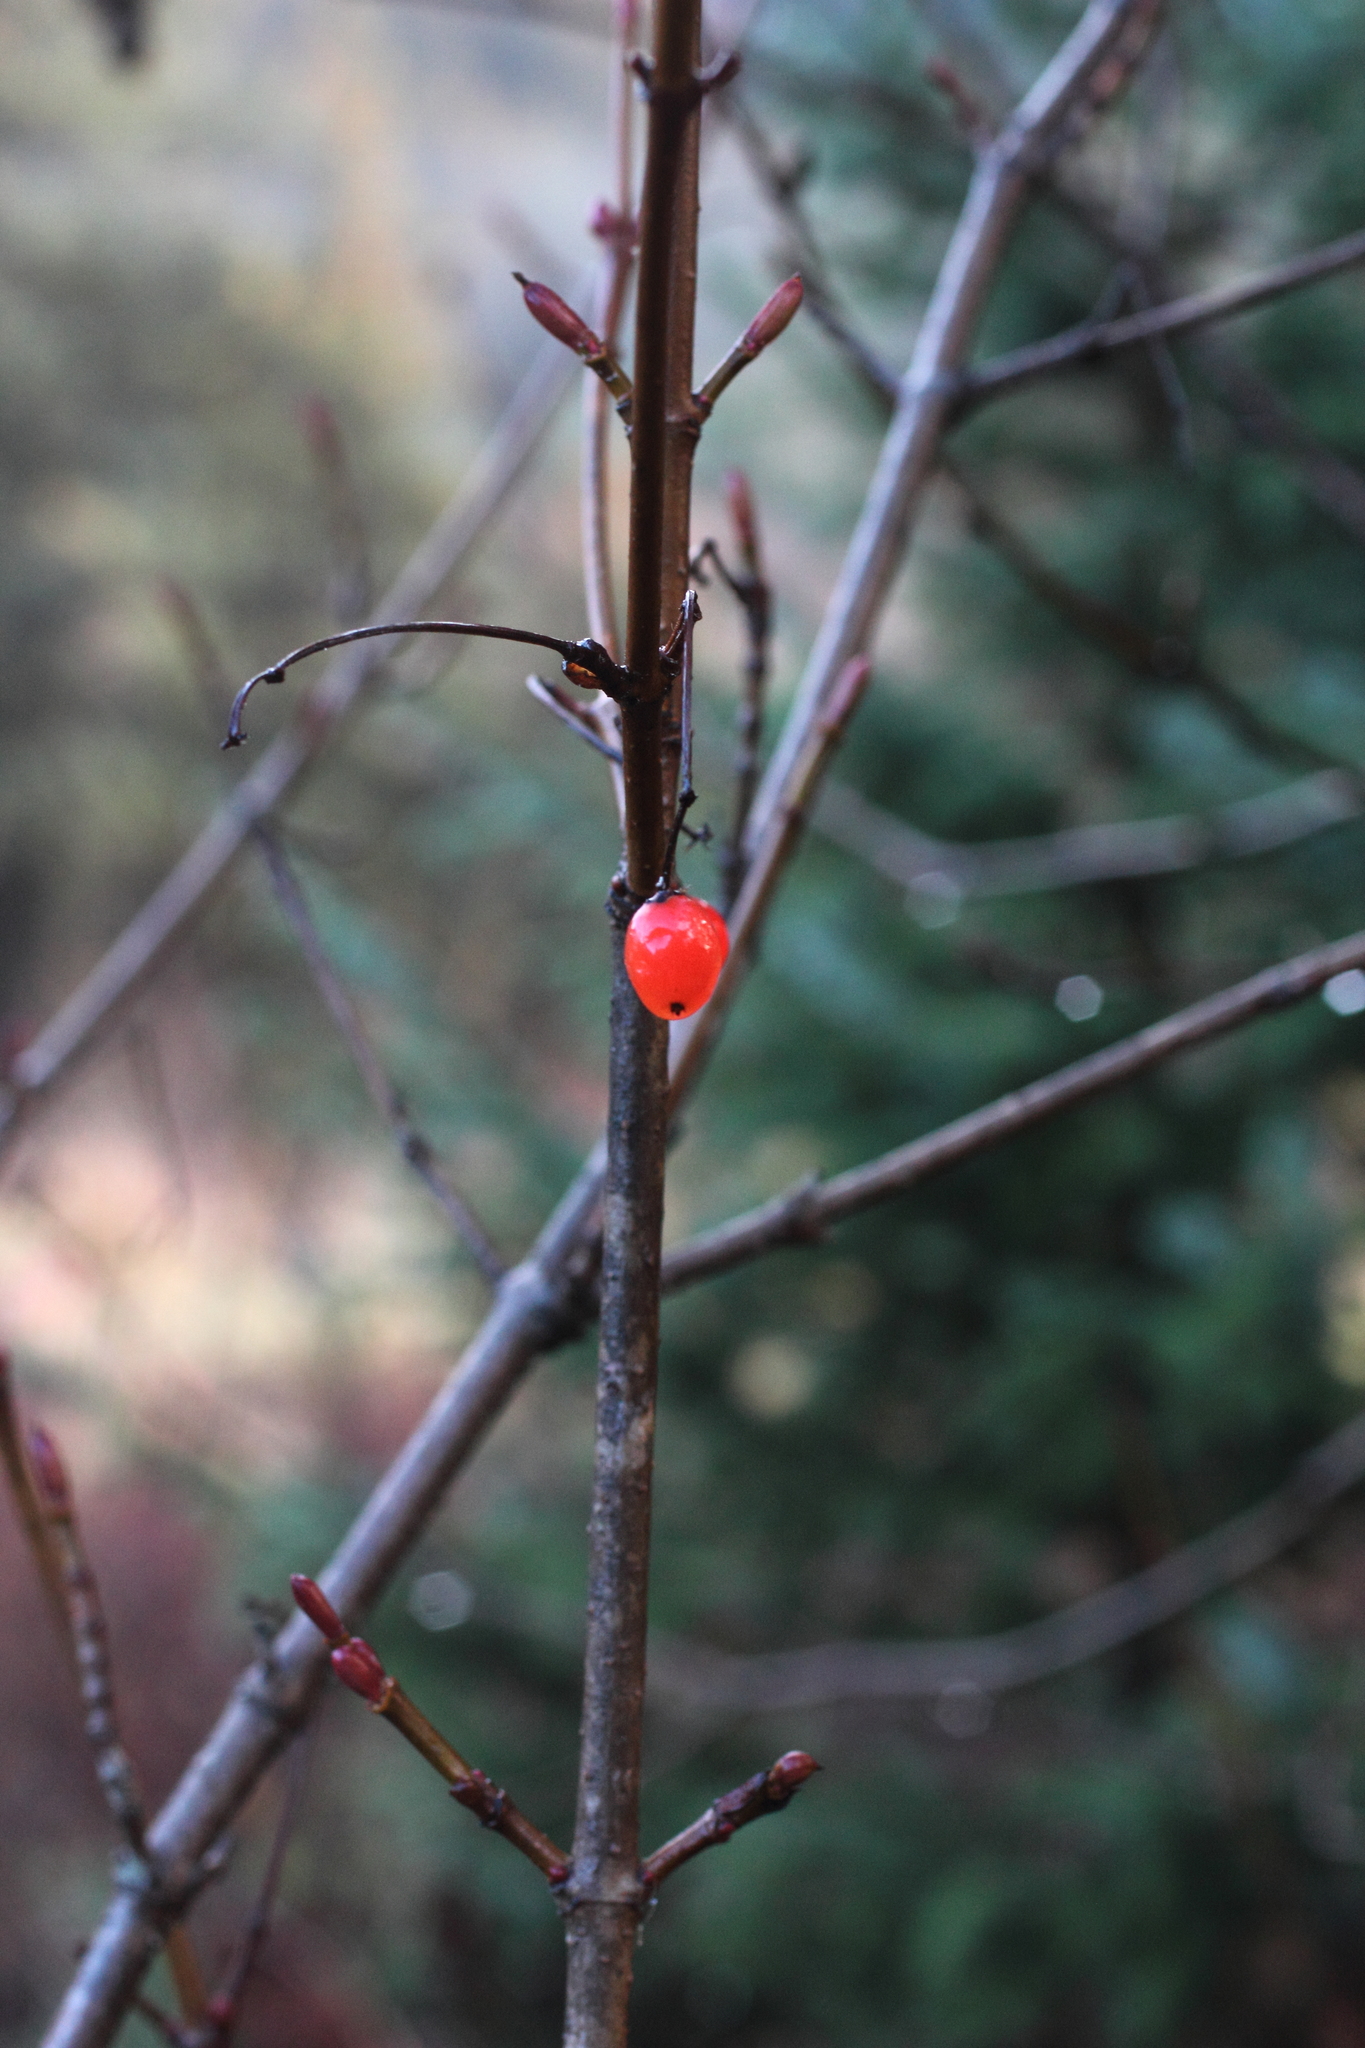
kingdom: Plantae
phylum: Tracheophyta
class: Magnoliopsida
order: Dipsacales
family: Viburnaceae
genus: Viburnum
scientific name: Viburnum edule
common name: Mooseberry
